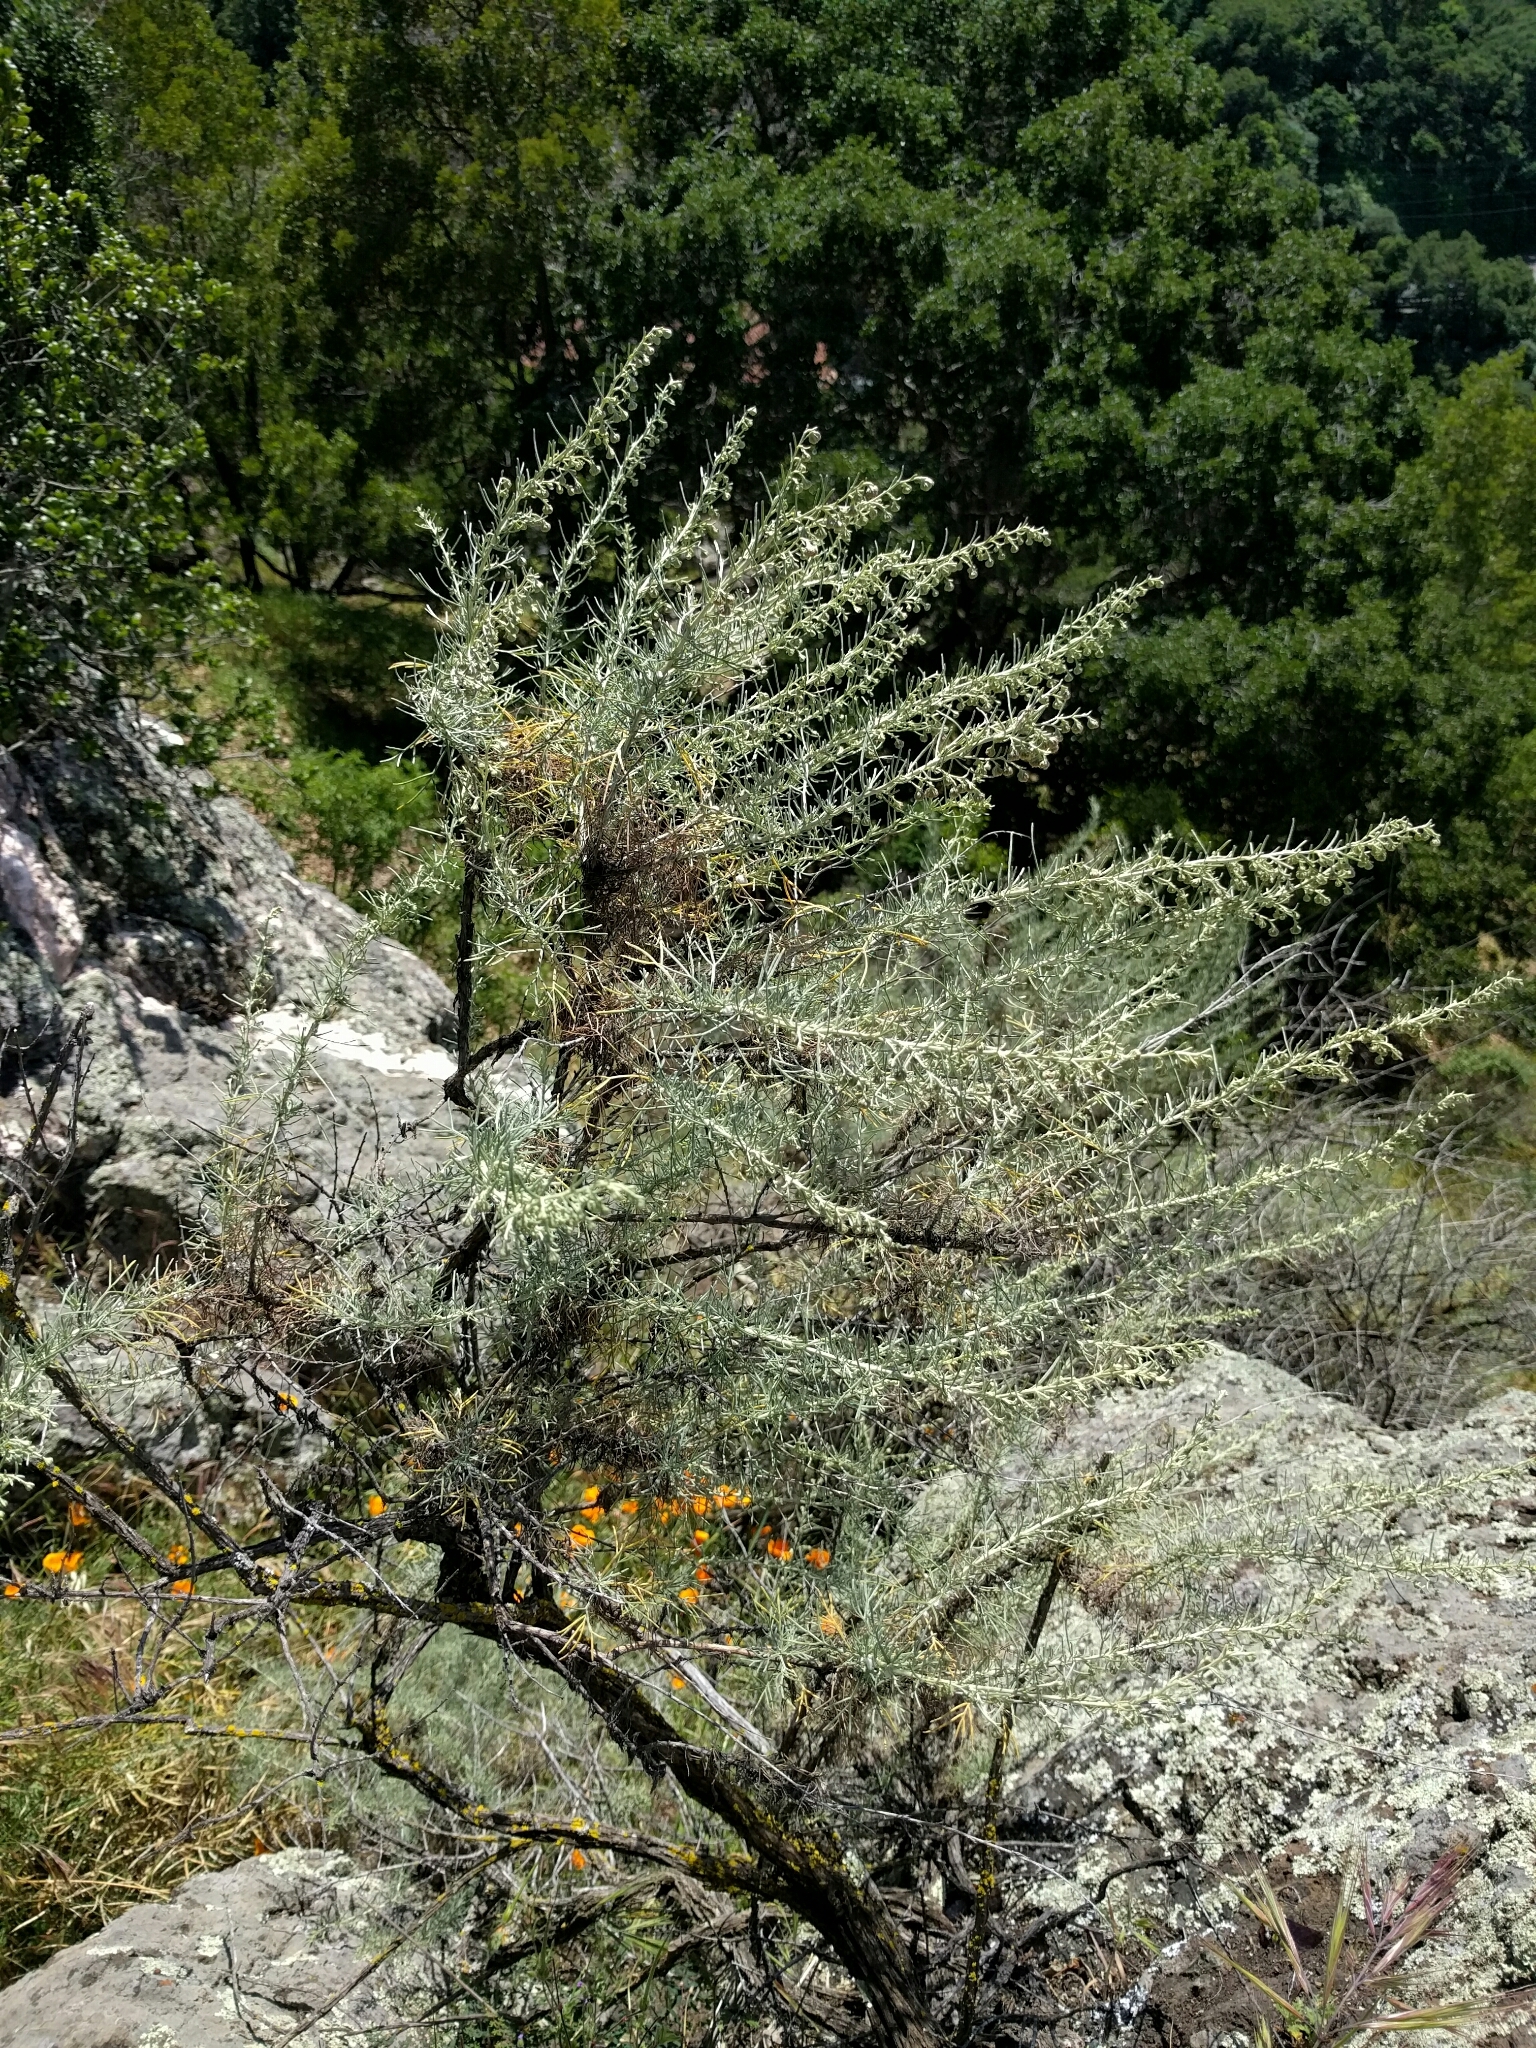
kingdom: Plantae
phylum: Tracheophyta
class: Magnoliopsida
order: Asterales
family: Asteraceae
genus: Artemisia
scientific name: Artemisia californica
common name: California sagebrush
